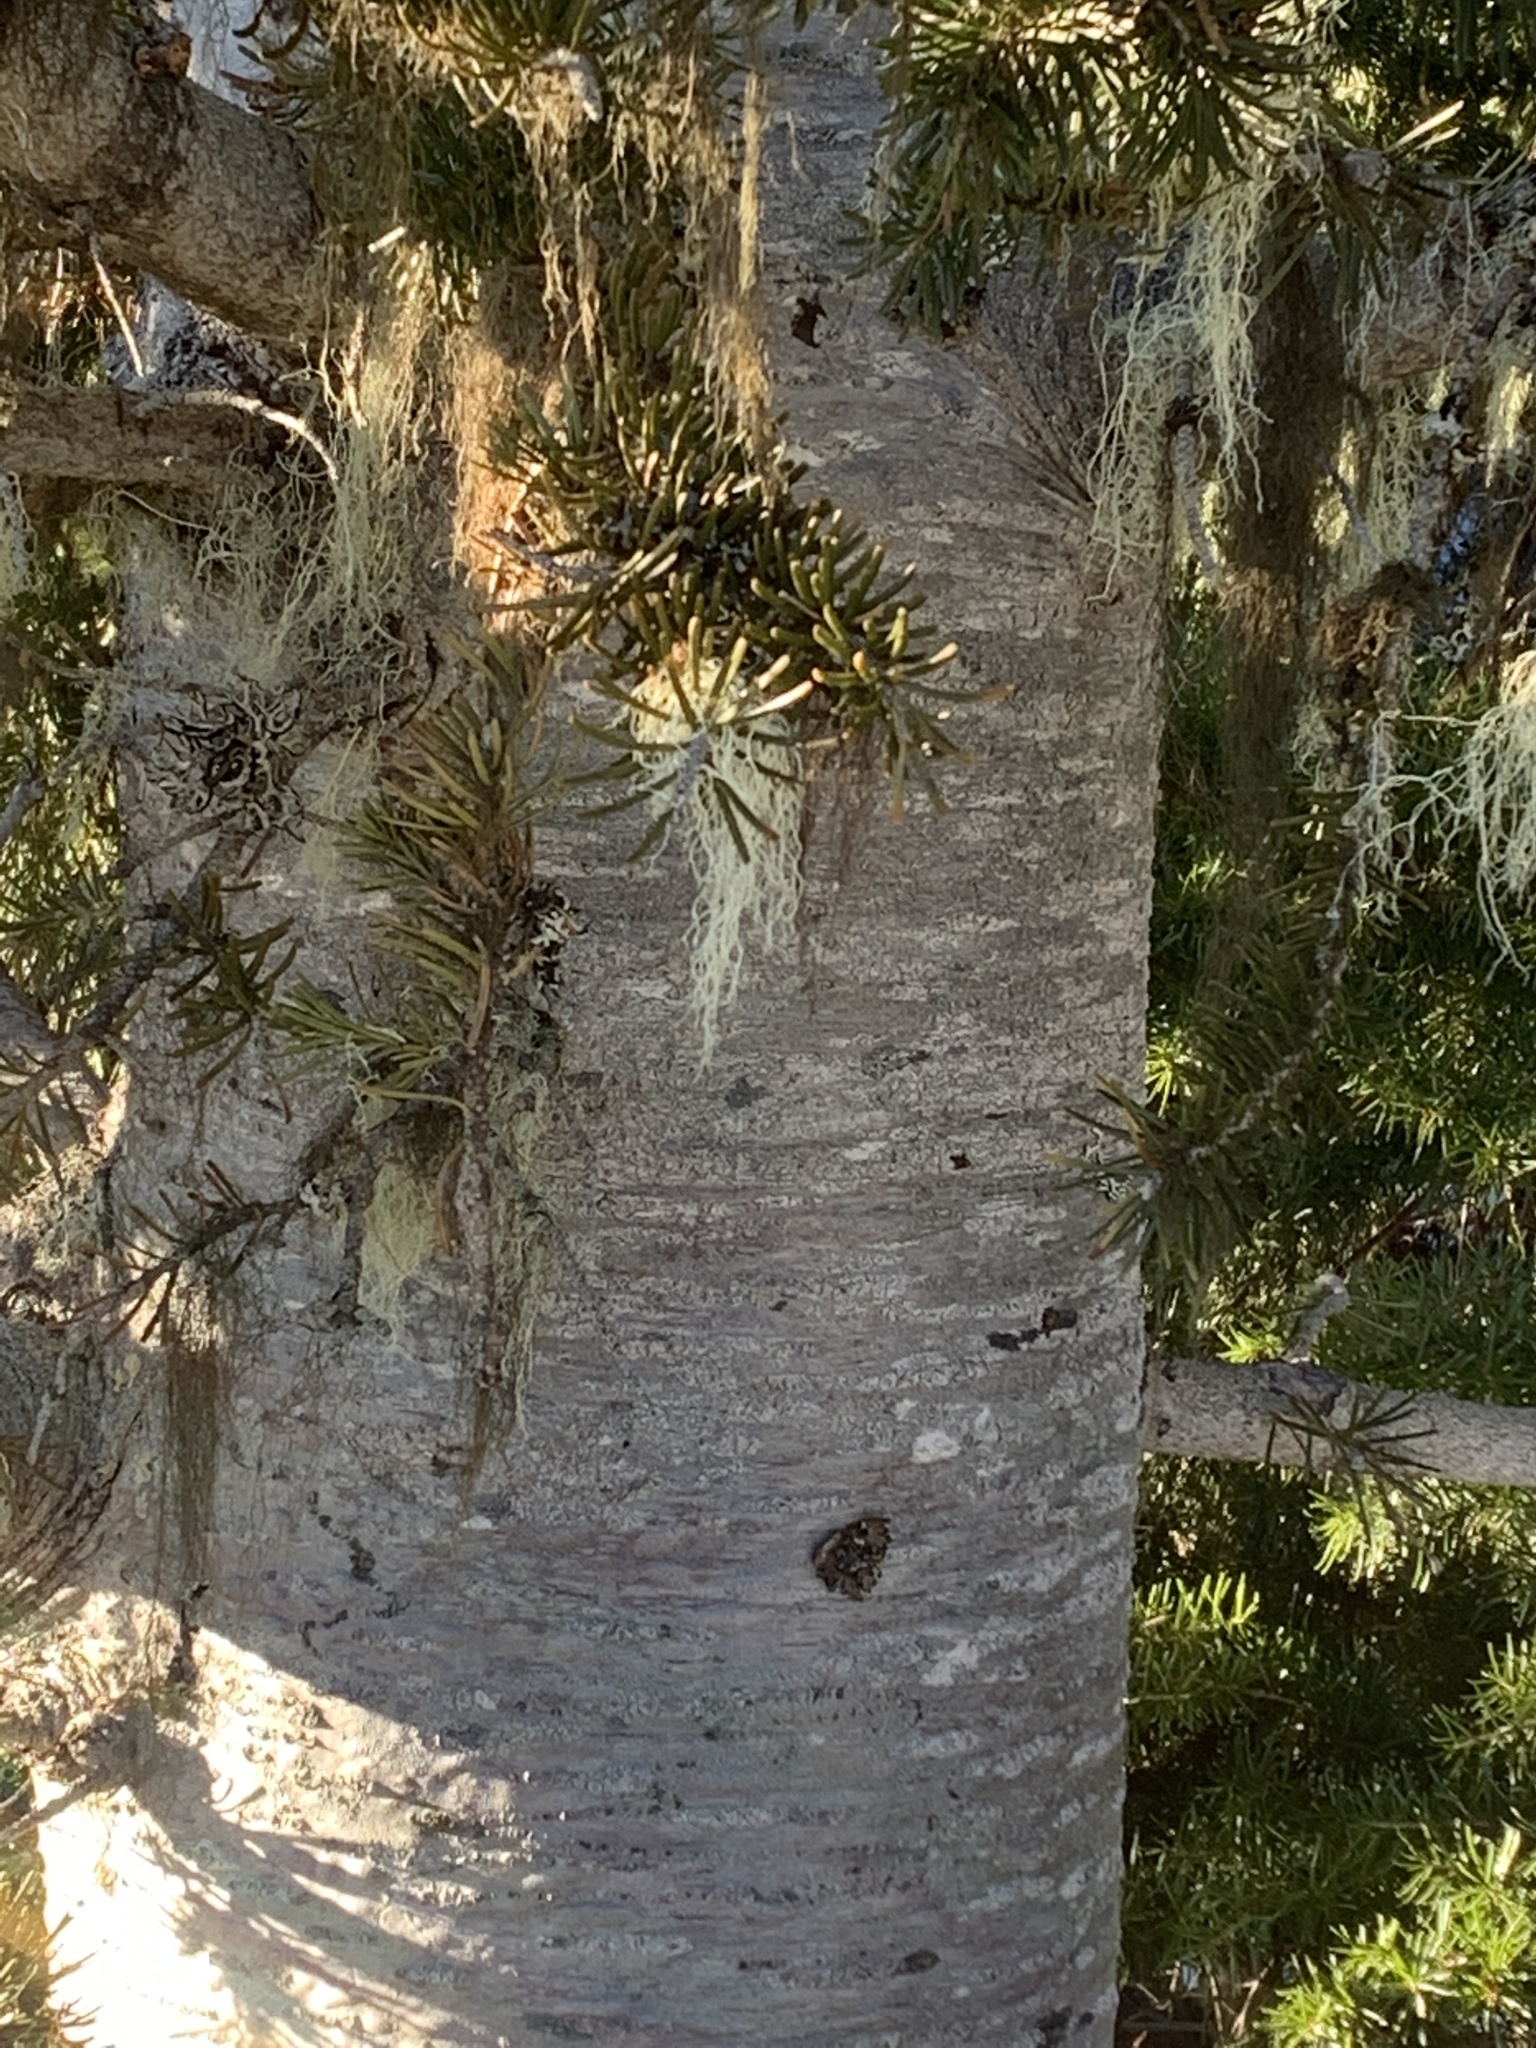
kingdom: Plantae
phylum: Tracheophyta
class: Pinopsida
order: Pinales
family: Pinaceae
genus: Abies
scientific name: Abies lasiocarpa
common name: Subalpine fir
